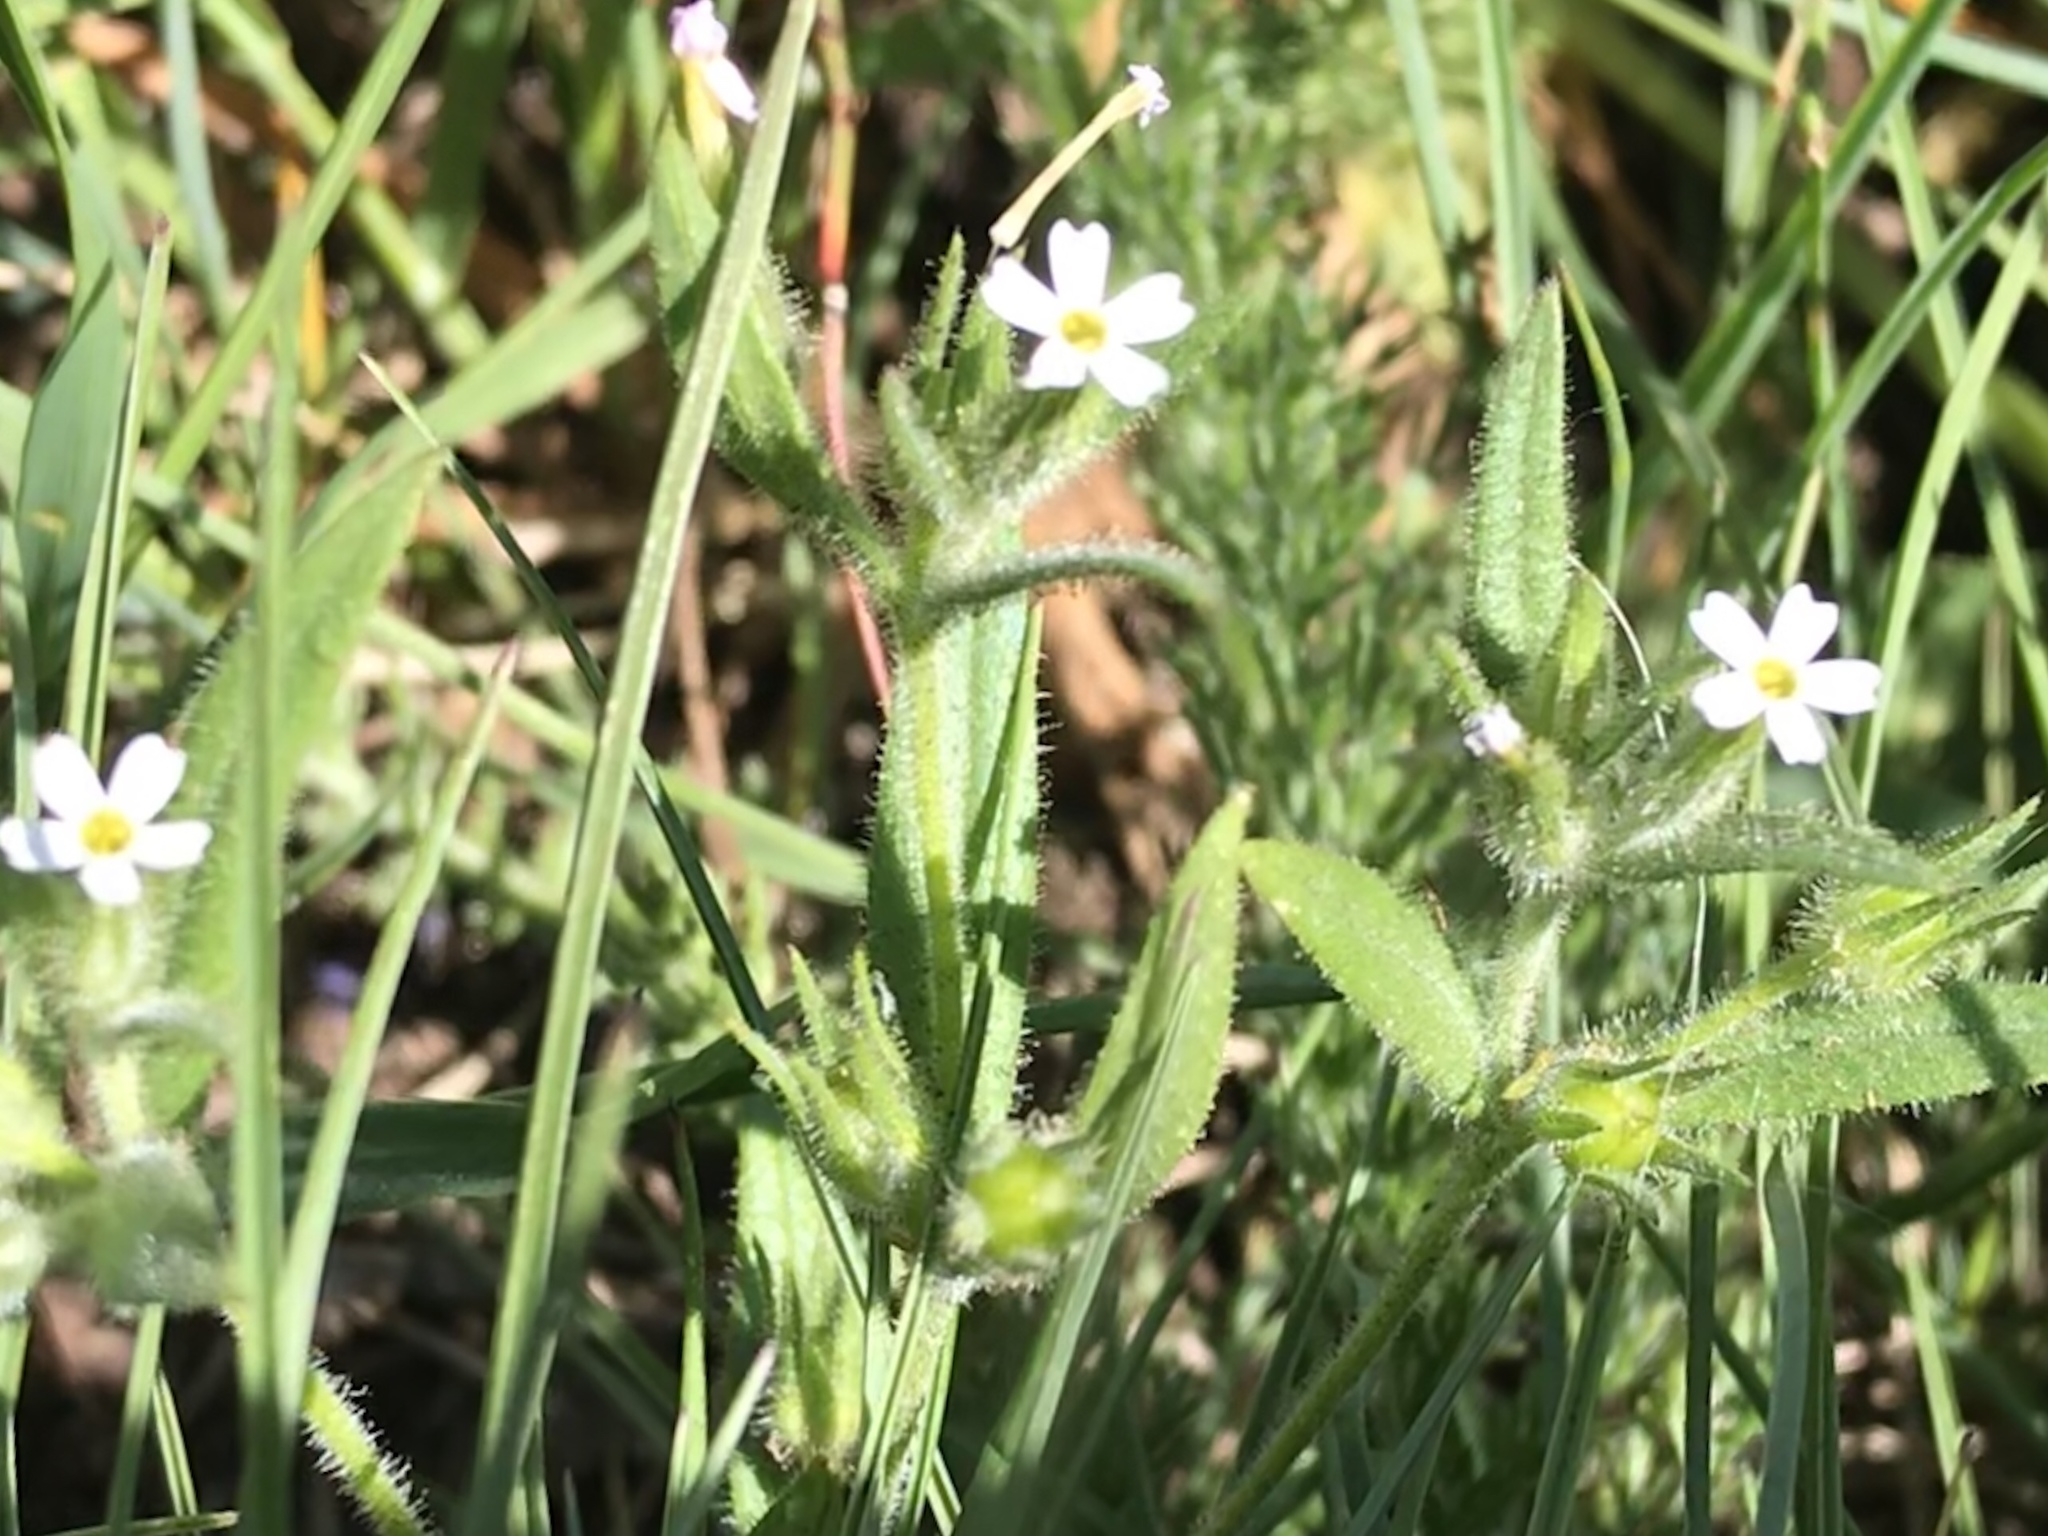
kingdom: Plantae
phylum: Tracheophyta
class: Magnoliopsida
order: Ericales
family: Polemoniaceae
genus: Phlox
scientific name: Phlox gracilis
